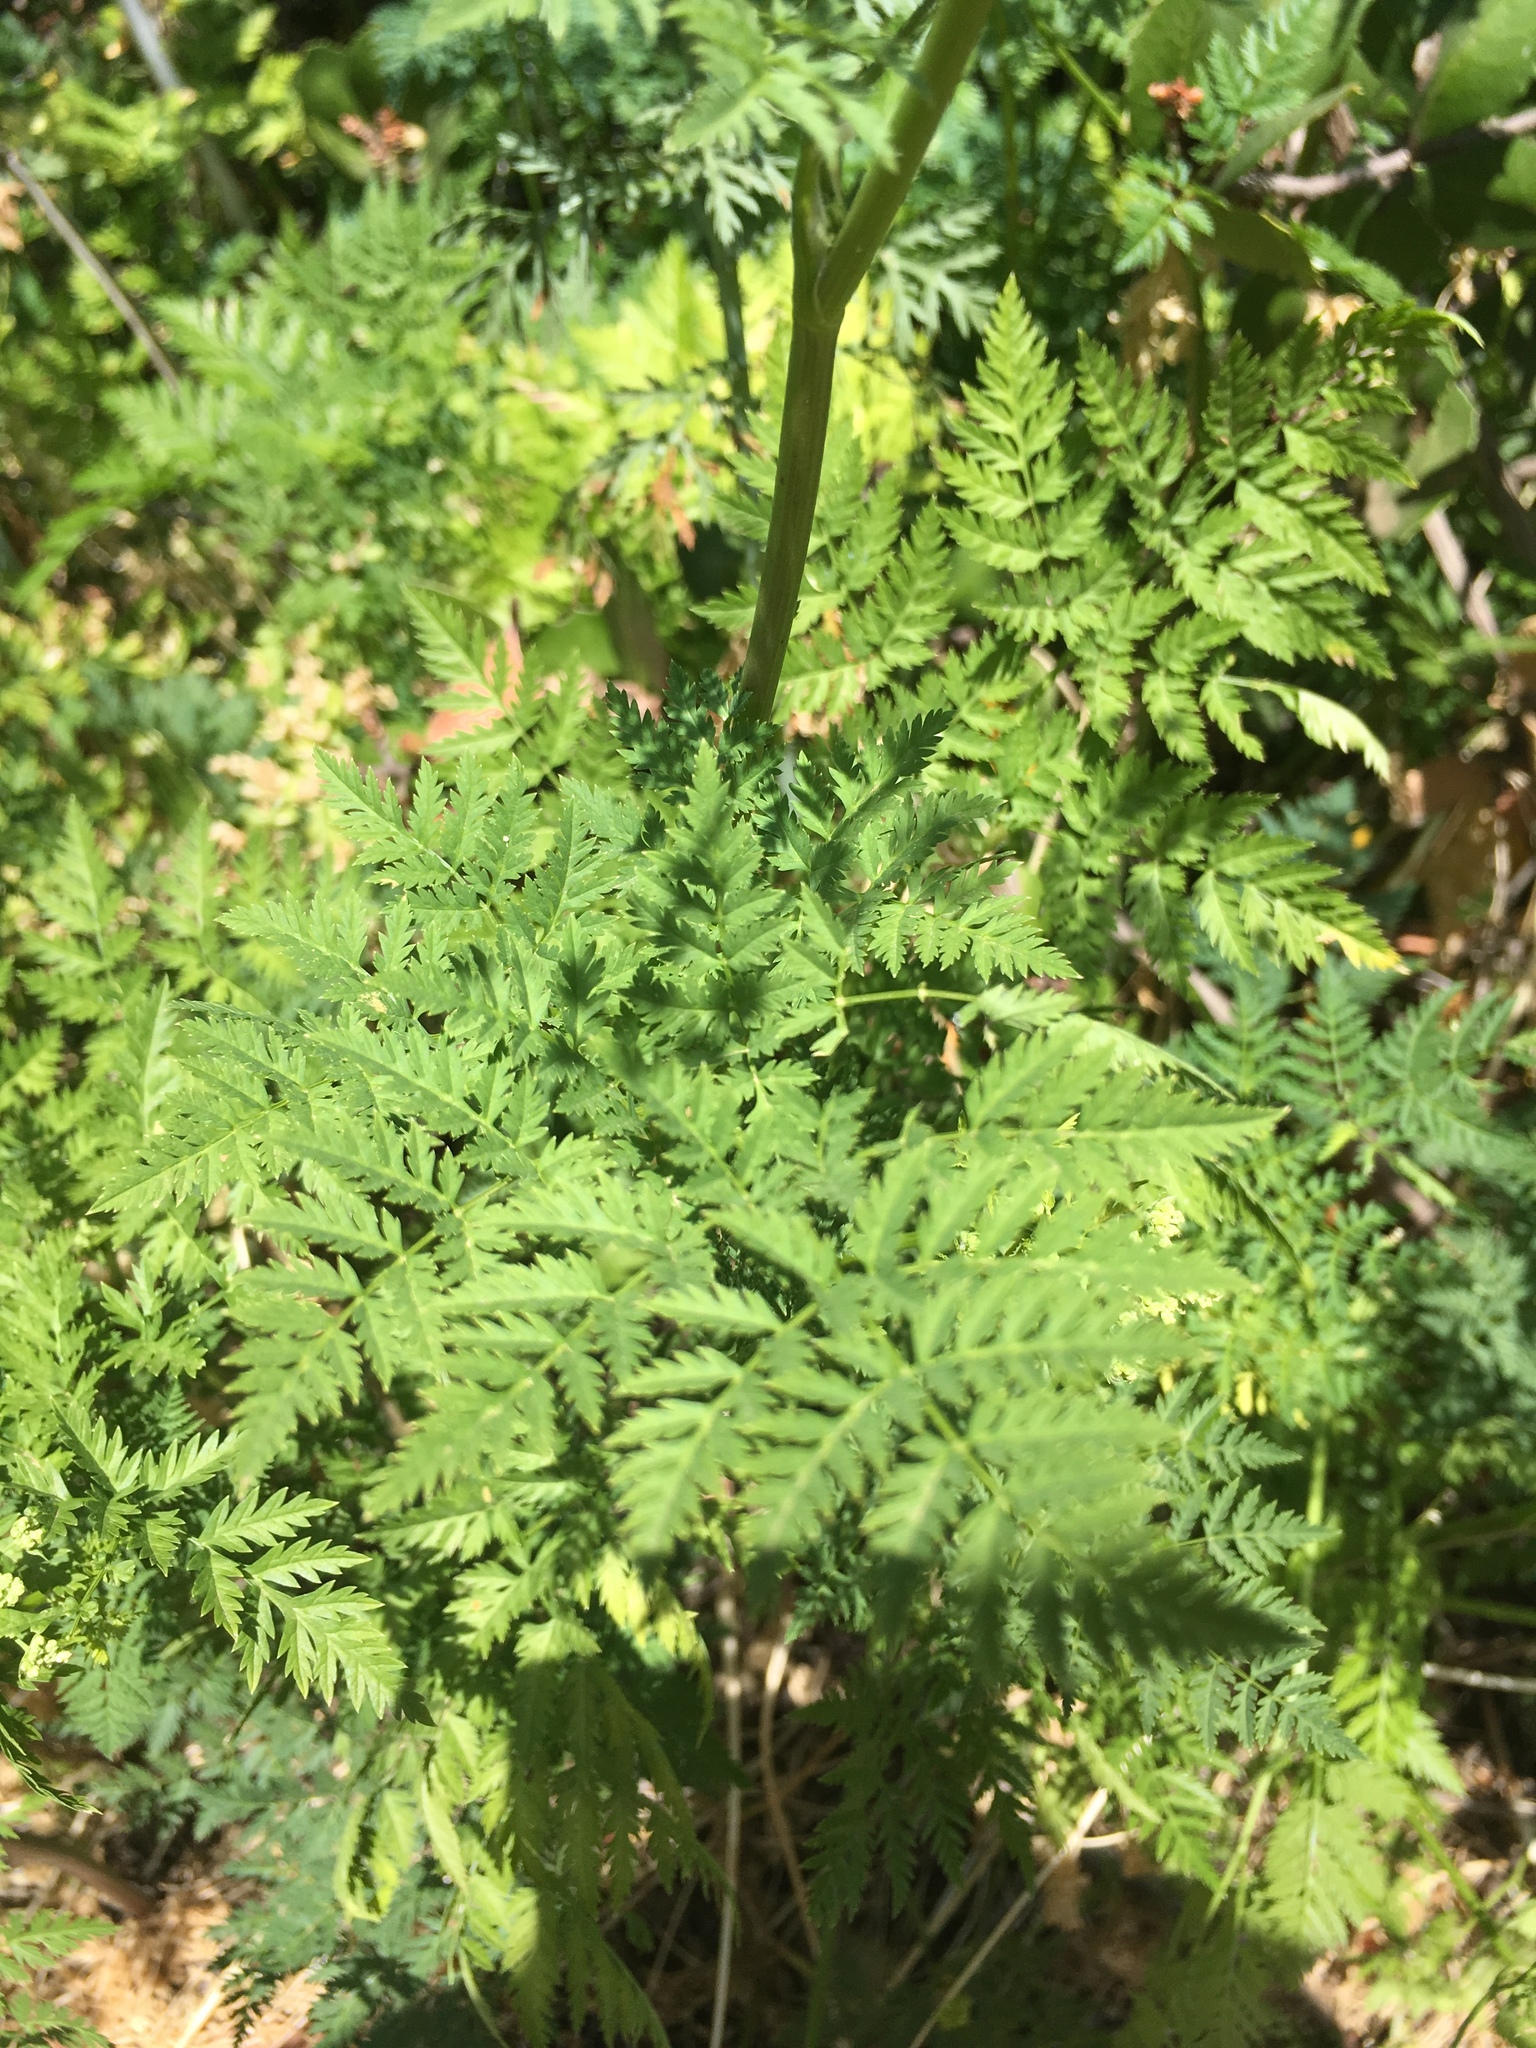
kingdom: Plantae
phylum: Tracheophyta
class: Magnoliopsida
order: Apiales
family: Apiaceae
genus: Conium
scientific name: Conium maculatum
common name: Hemlock
